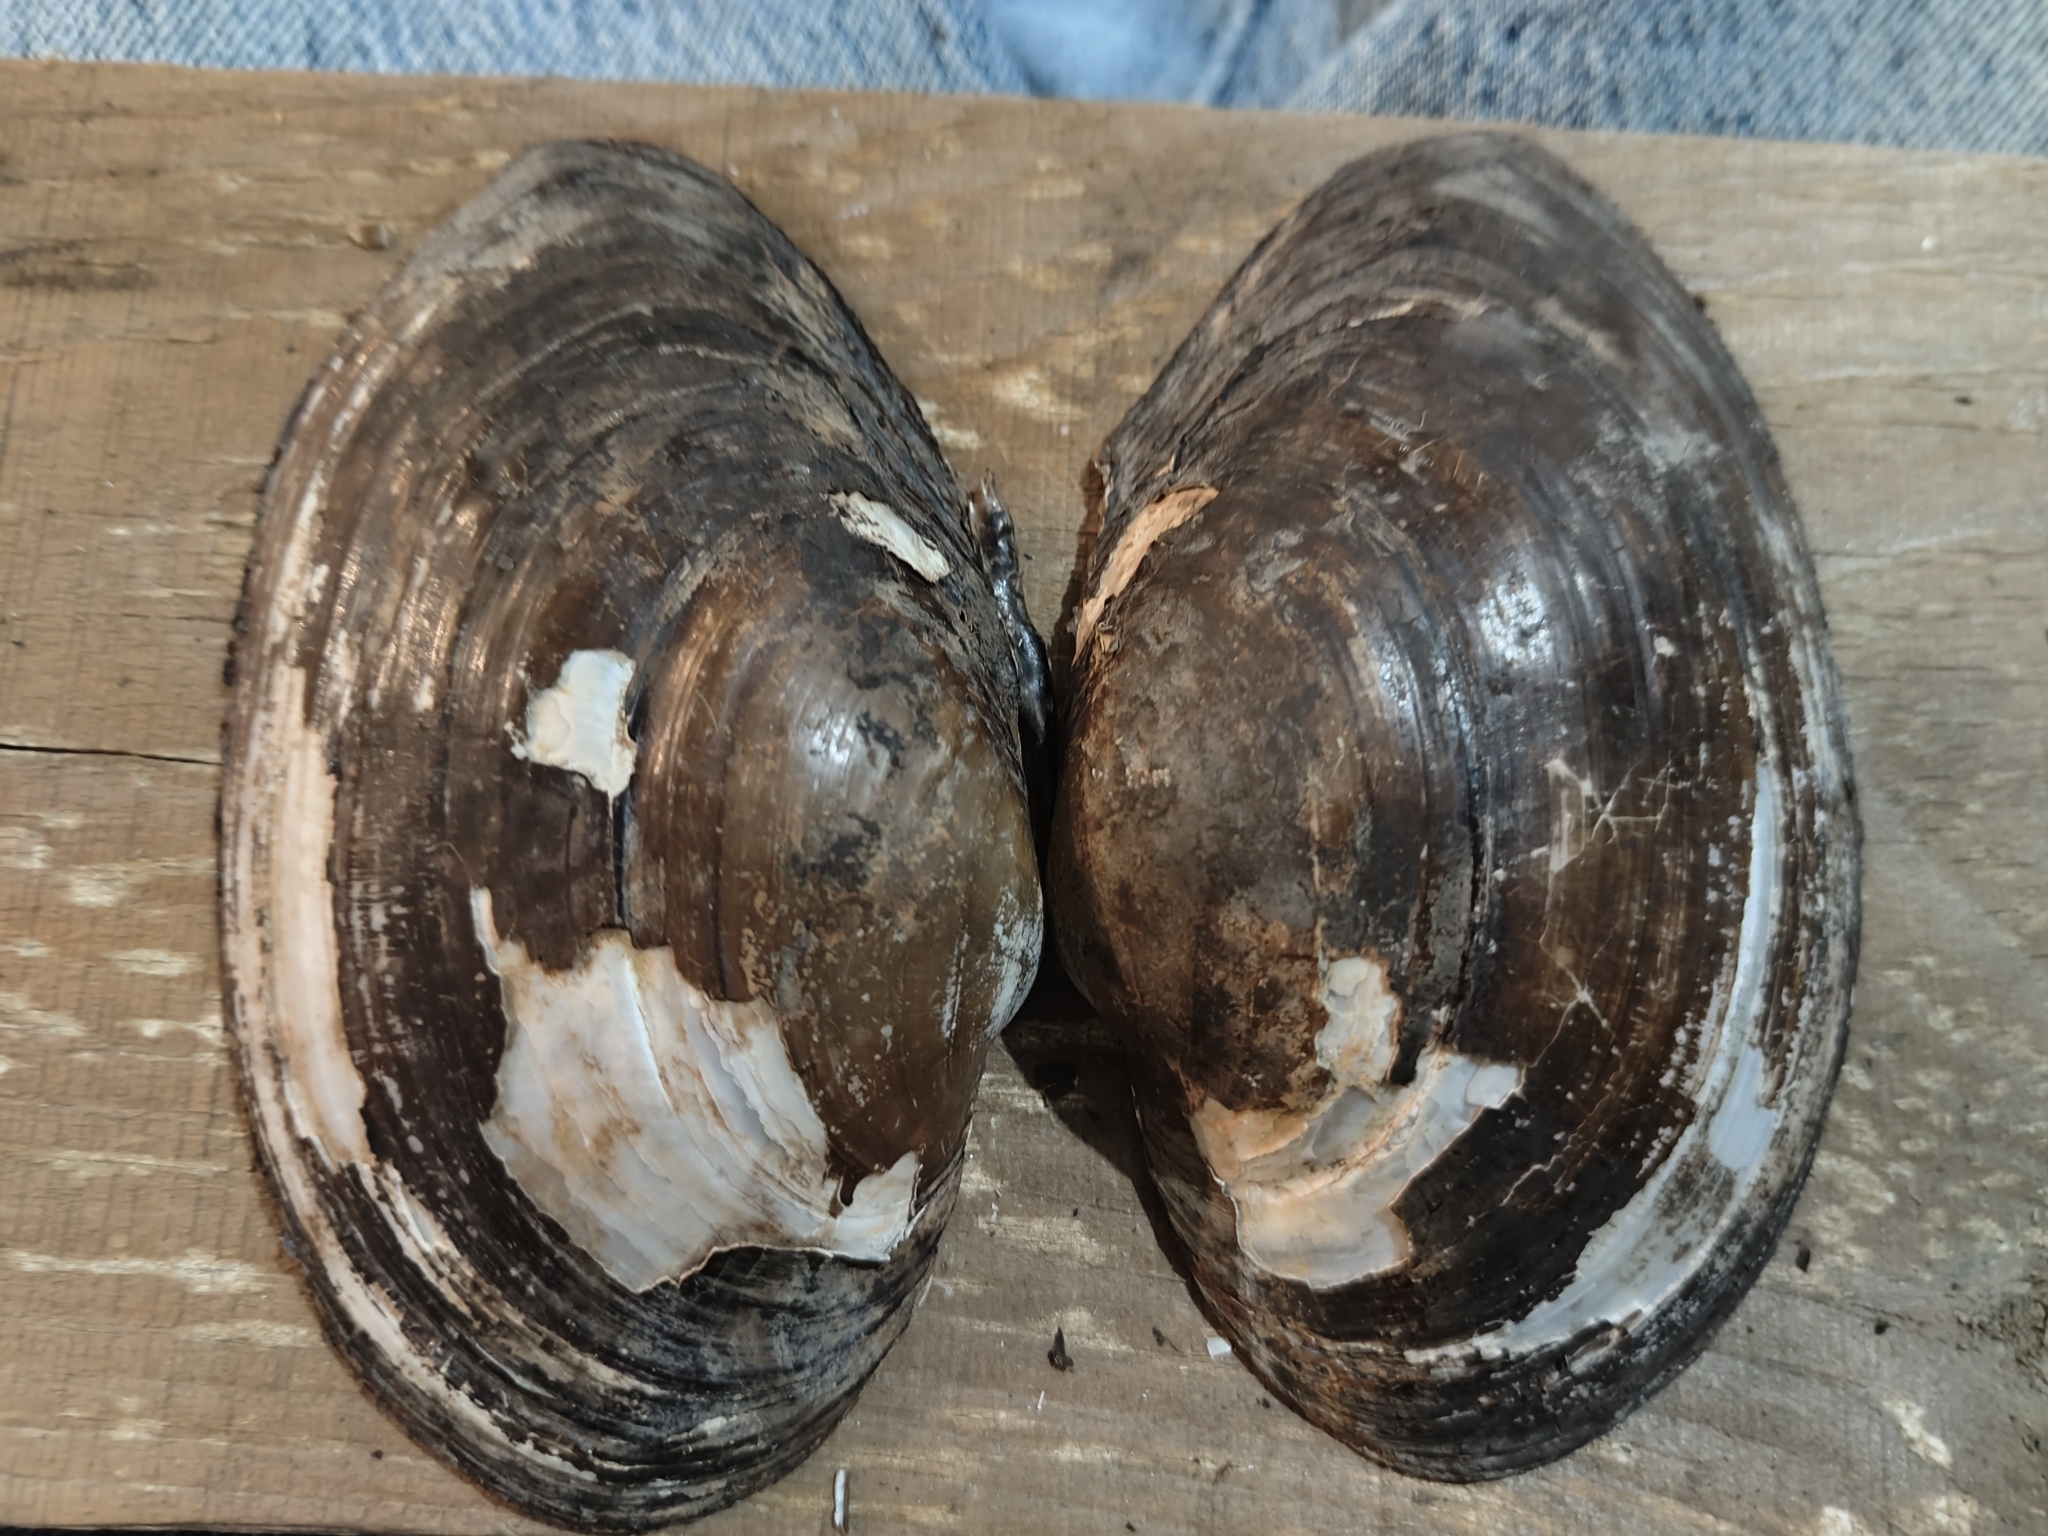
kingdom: Animalia
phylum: Mollusca
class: Bivalvia
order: Unionida
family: Unionidae
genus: Pyganodon
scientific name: Pyganodon grandis
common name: Giant floater
